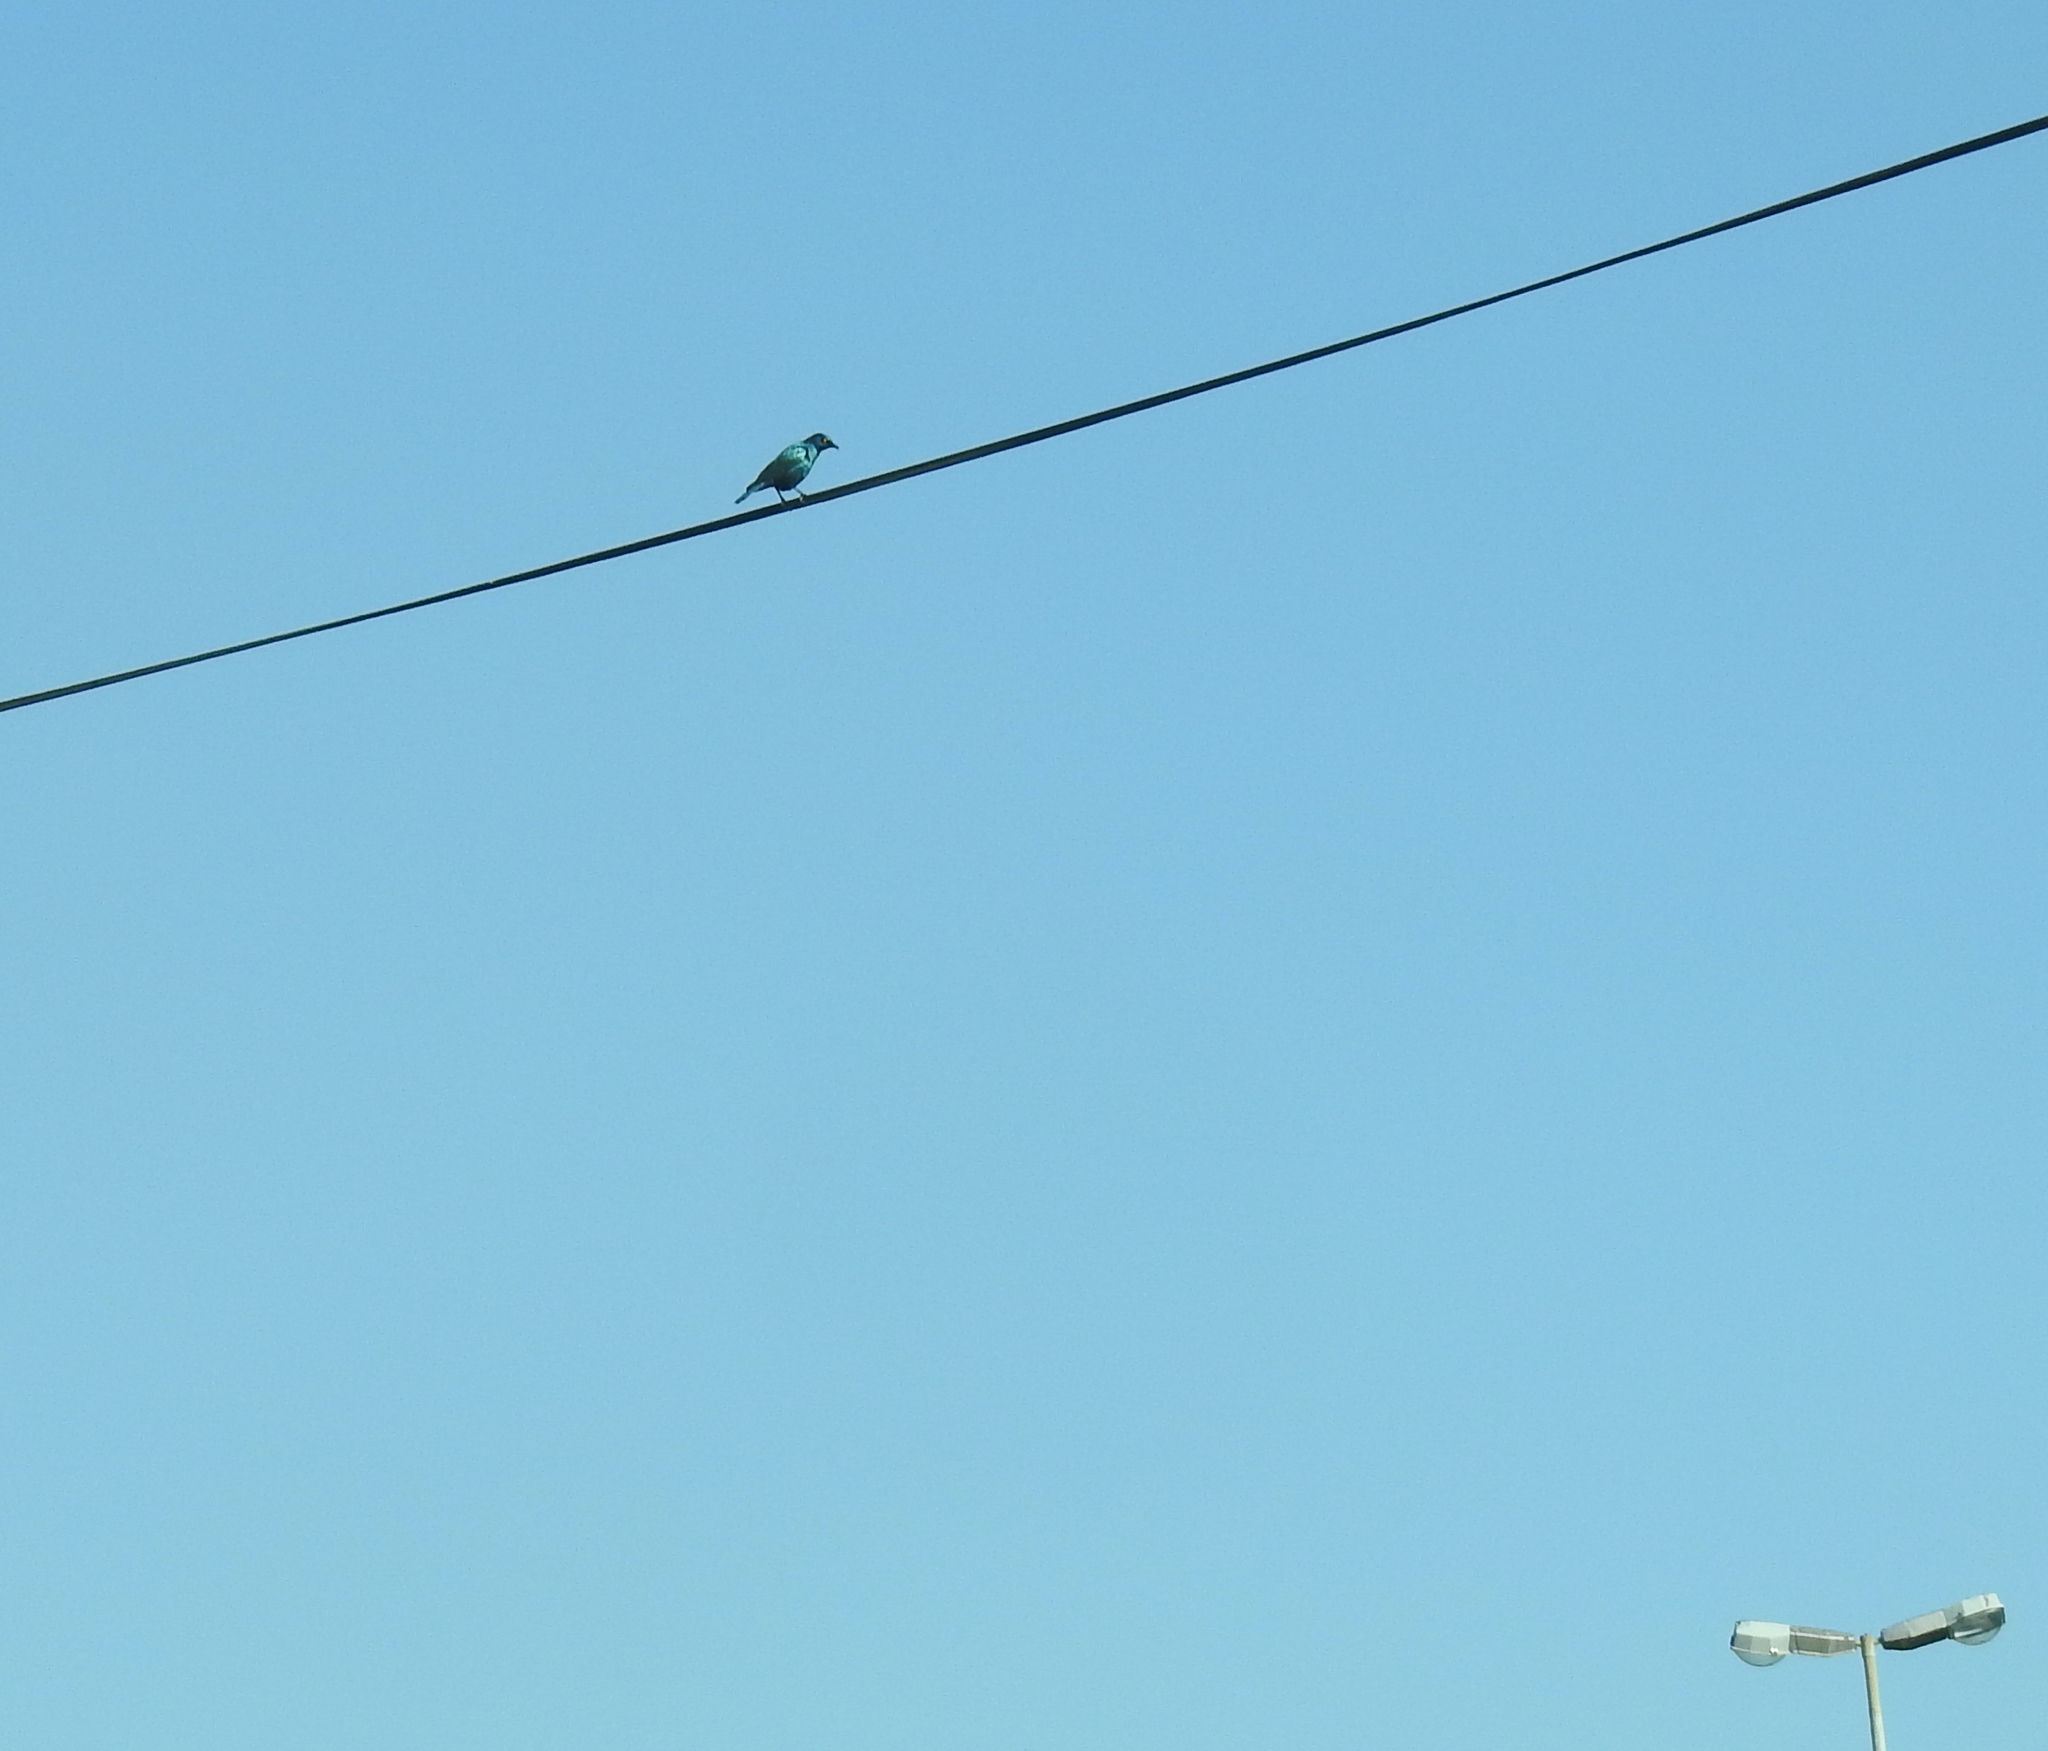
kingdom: Animalia
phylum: Chordata
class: Aves
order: Passeriformes
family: Sturnidae
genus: Lamprotornis
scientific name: Lamprotornis nitens
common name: Cape starling
